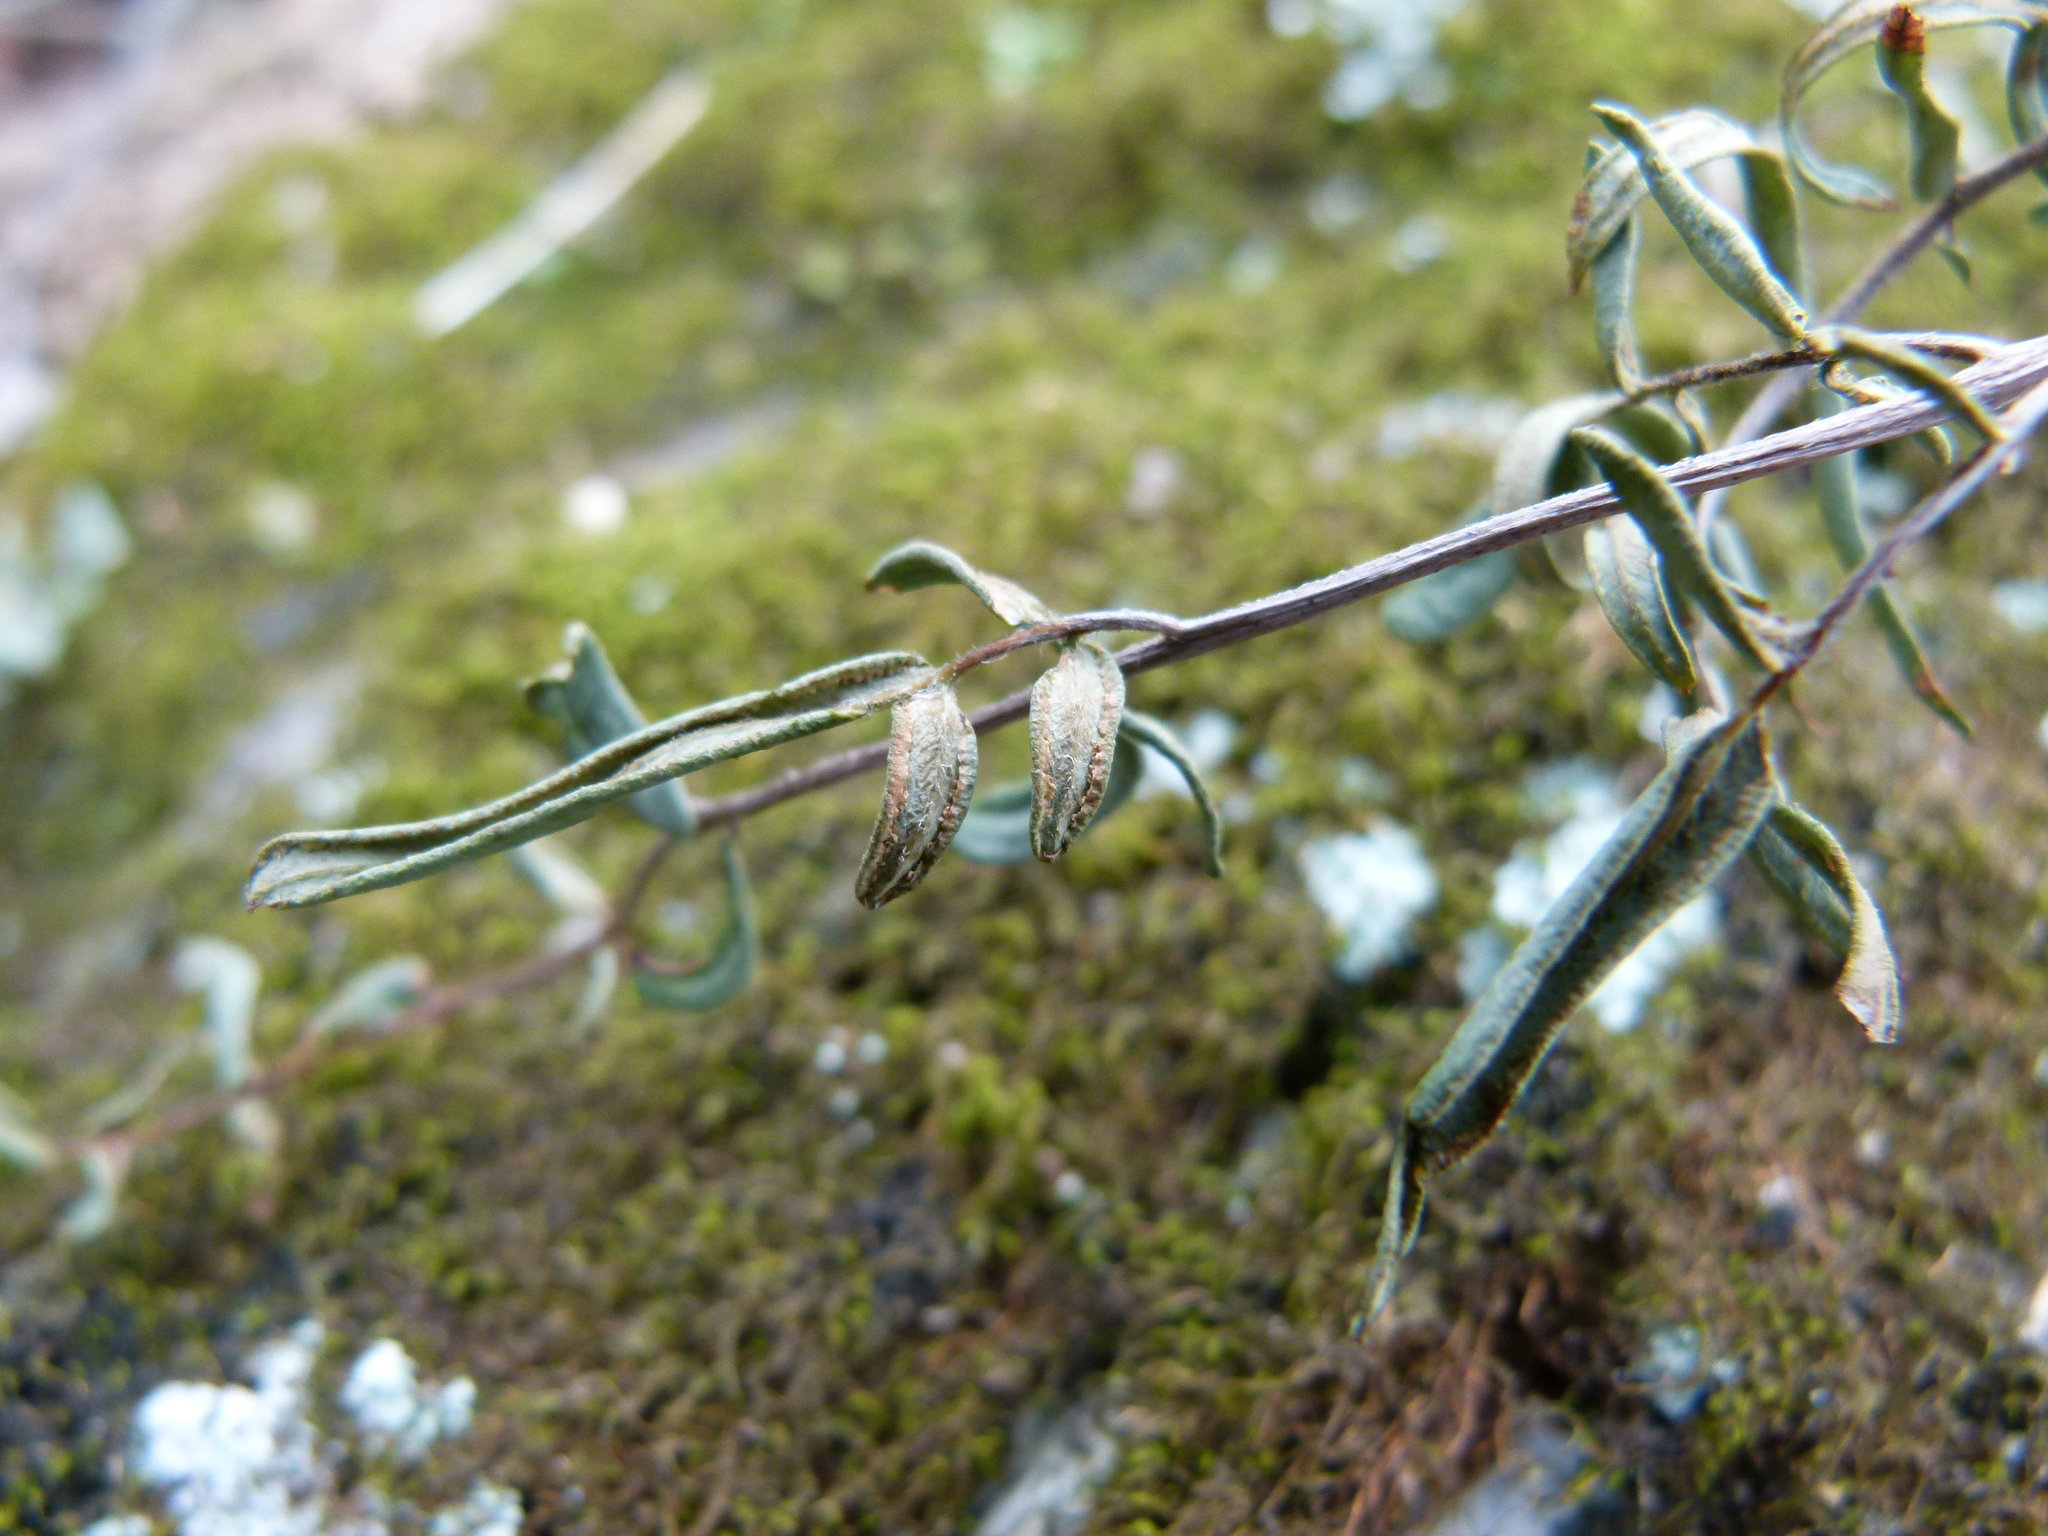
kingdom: Plantae
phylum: Tracheophyta
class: Polypodiopsida
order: Polypodiales
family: Pteridaceae
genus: Pellaea
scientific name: Pellaea atropurpurea
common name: Hairy cliffbrake
